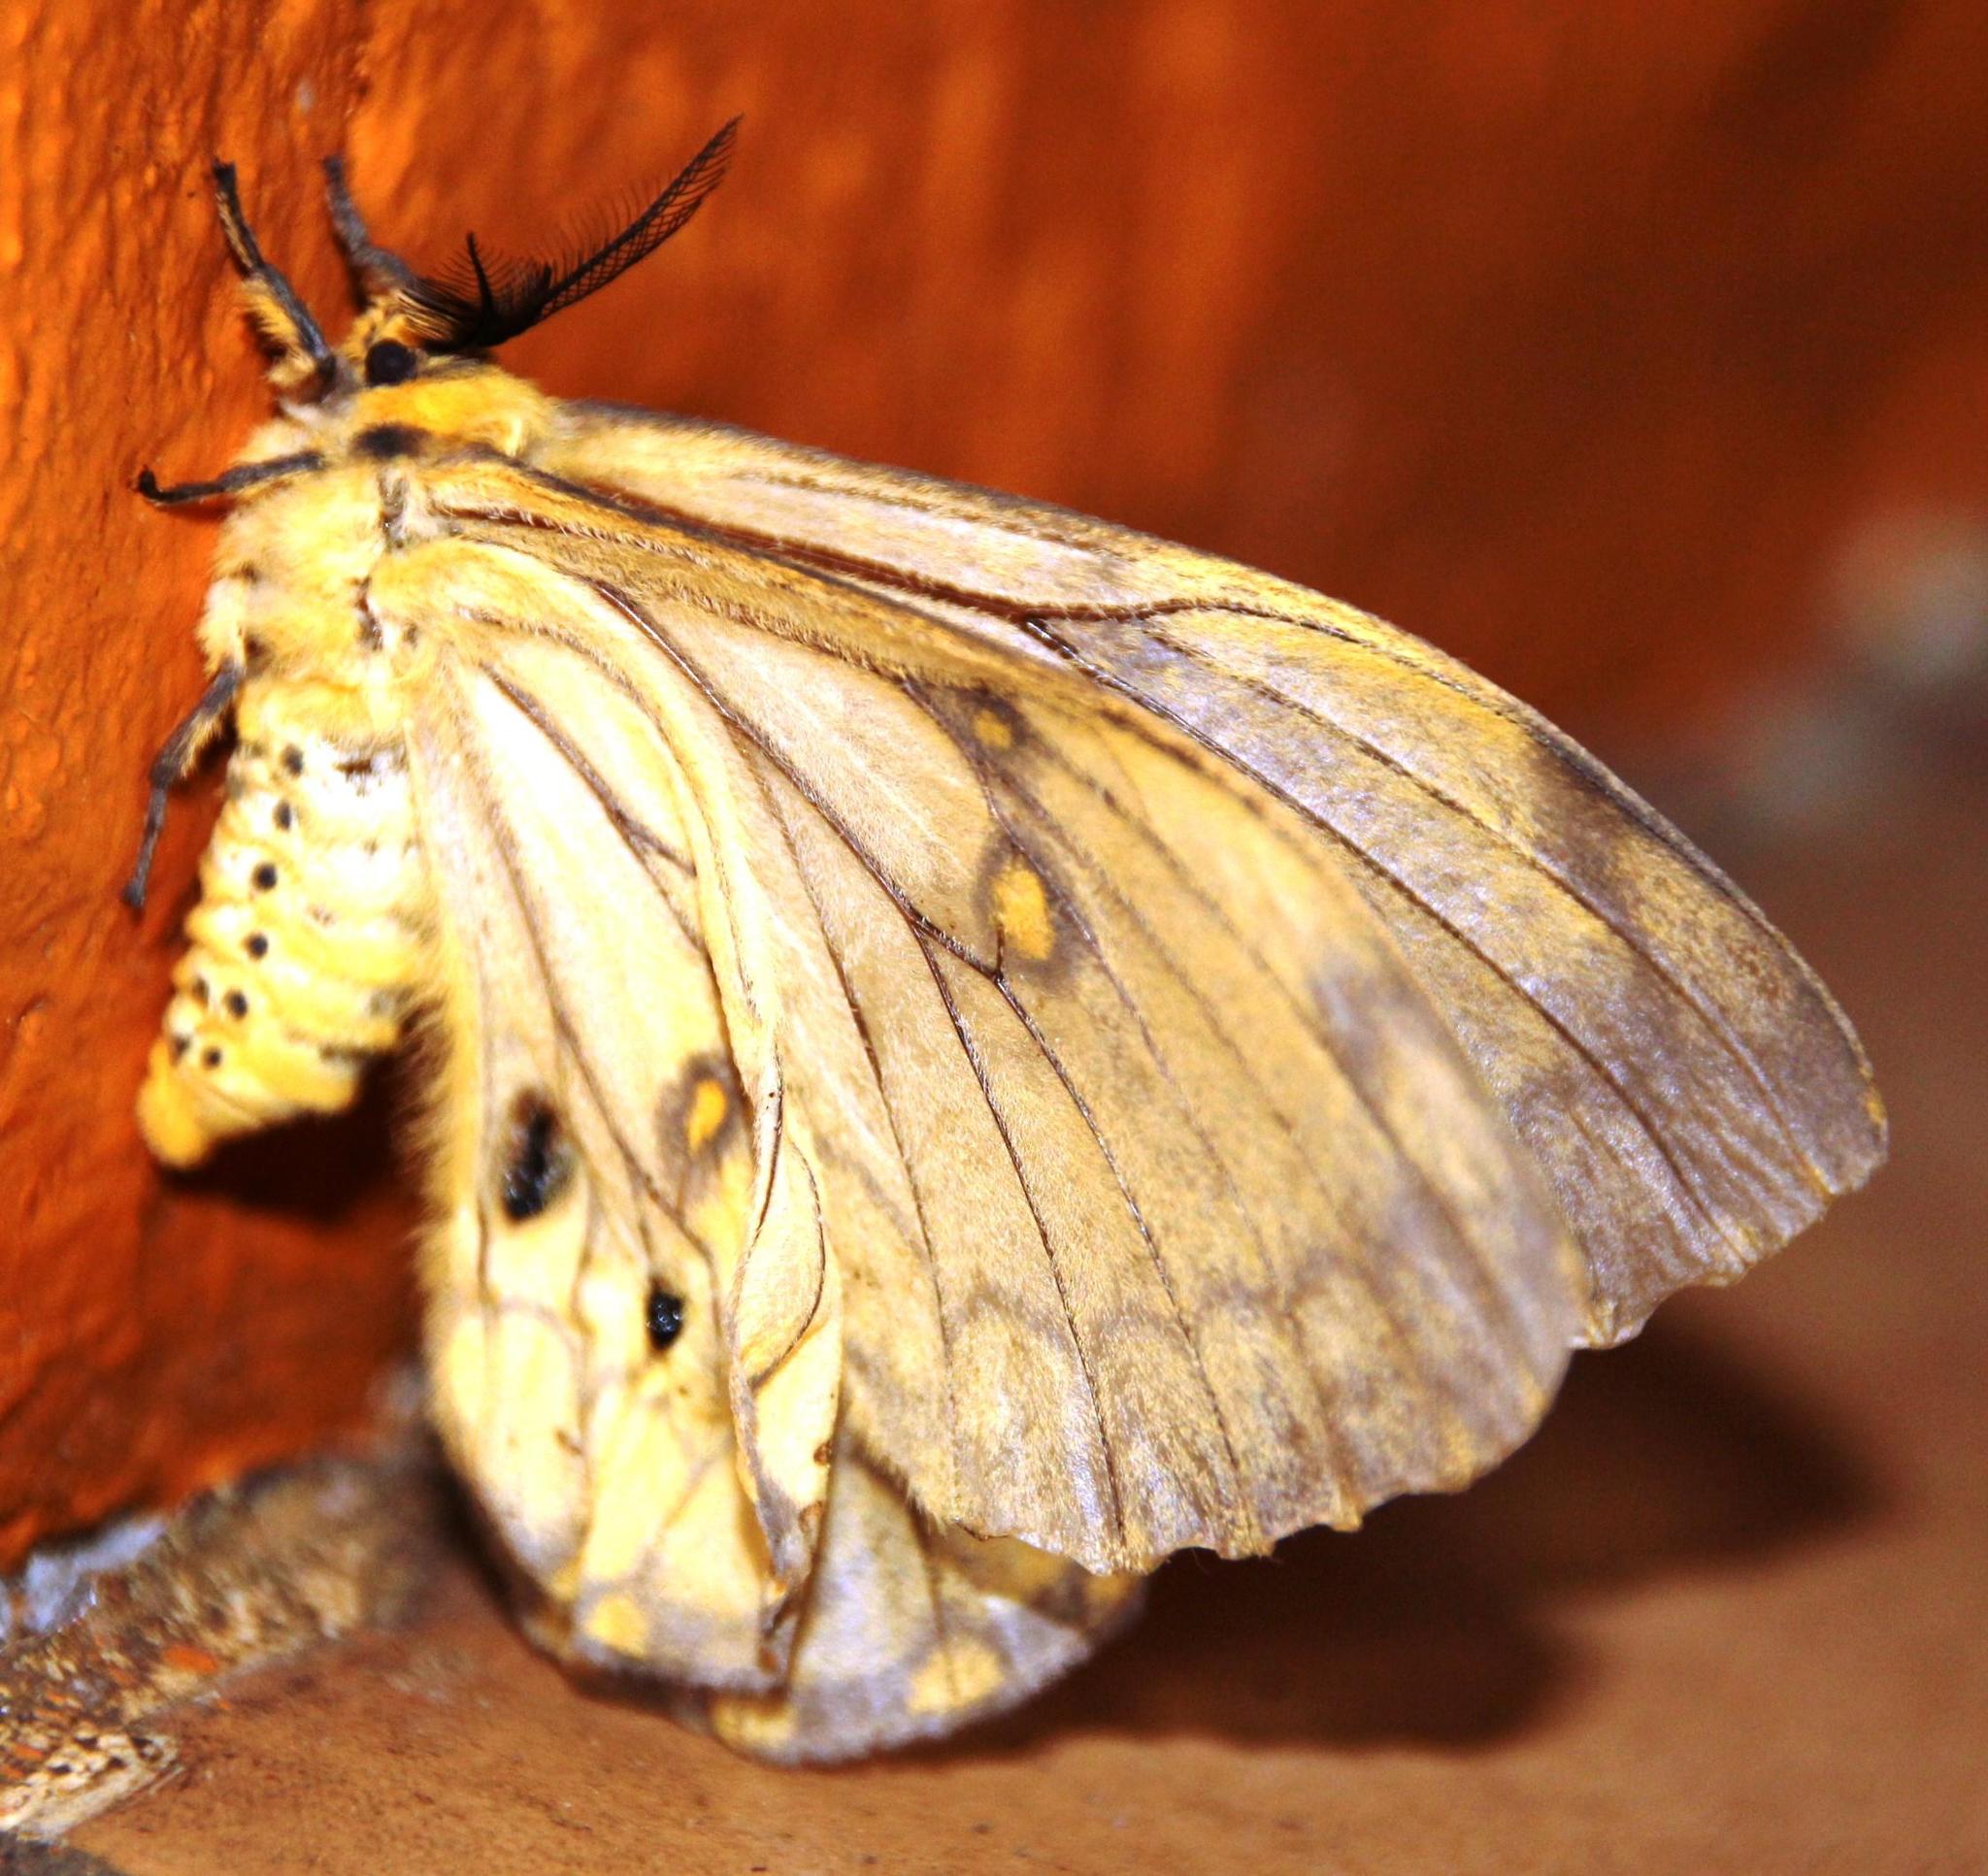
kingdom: Animalia
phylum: Arthropoda
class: Insecta
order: Lepidoptera
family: Saturniidae
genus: Pseudaphelia
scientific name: Pseudaphelia apollinaris
